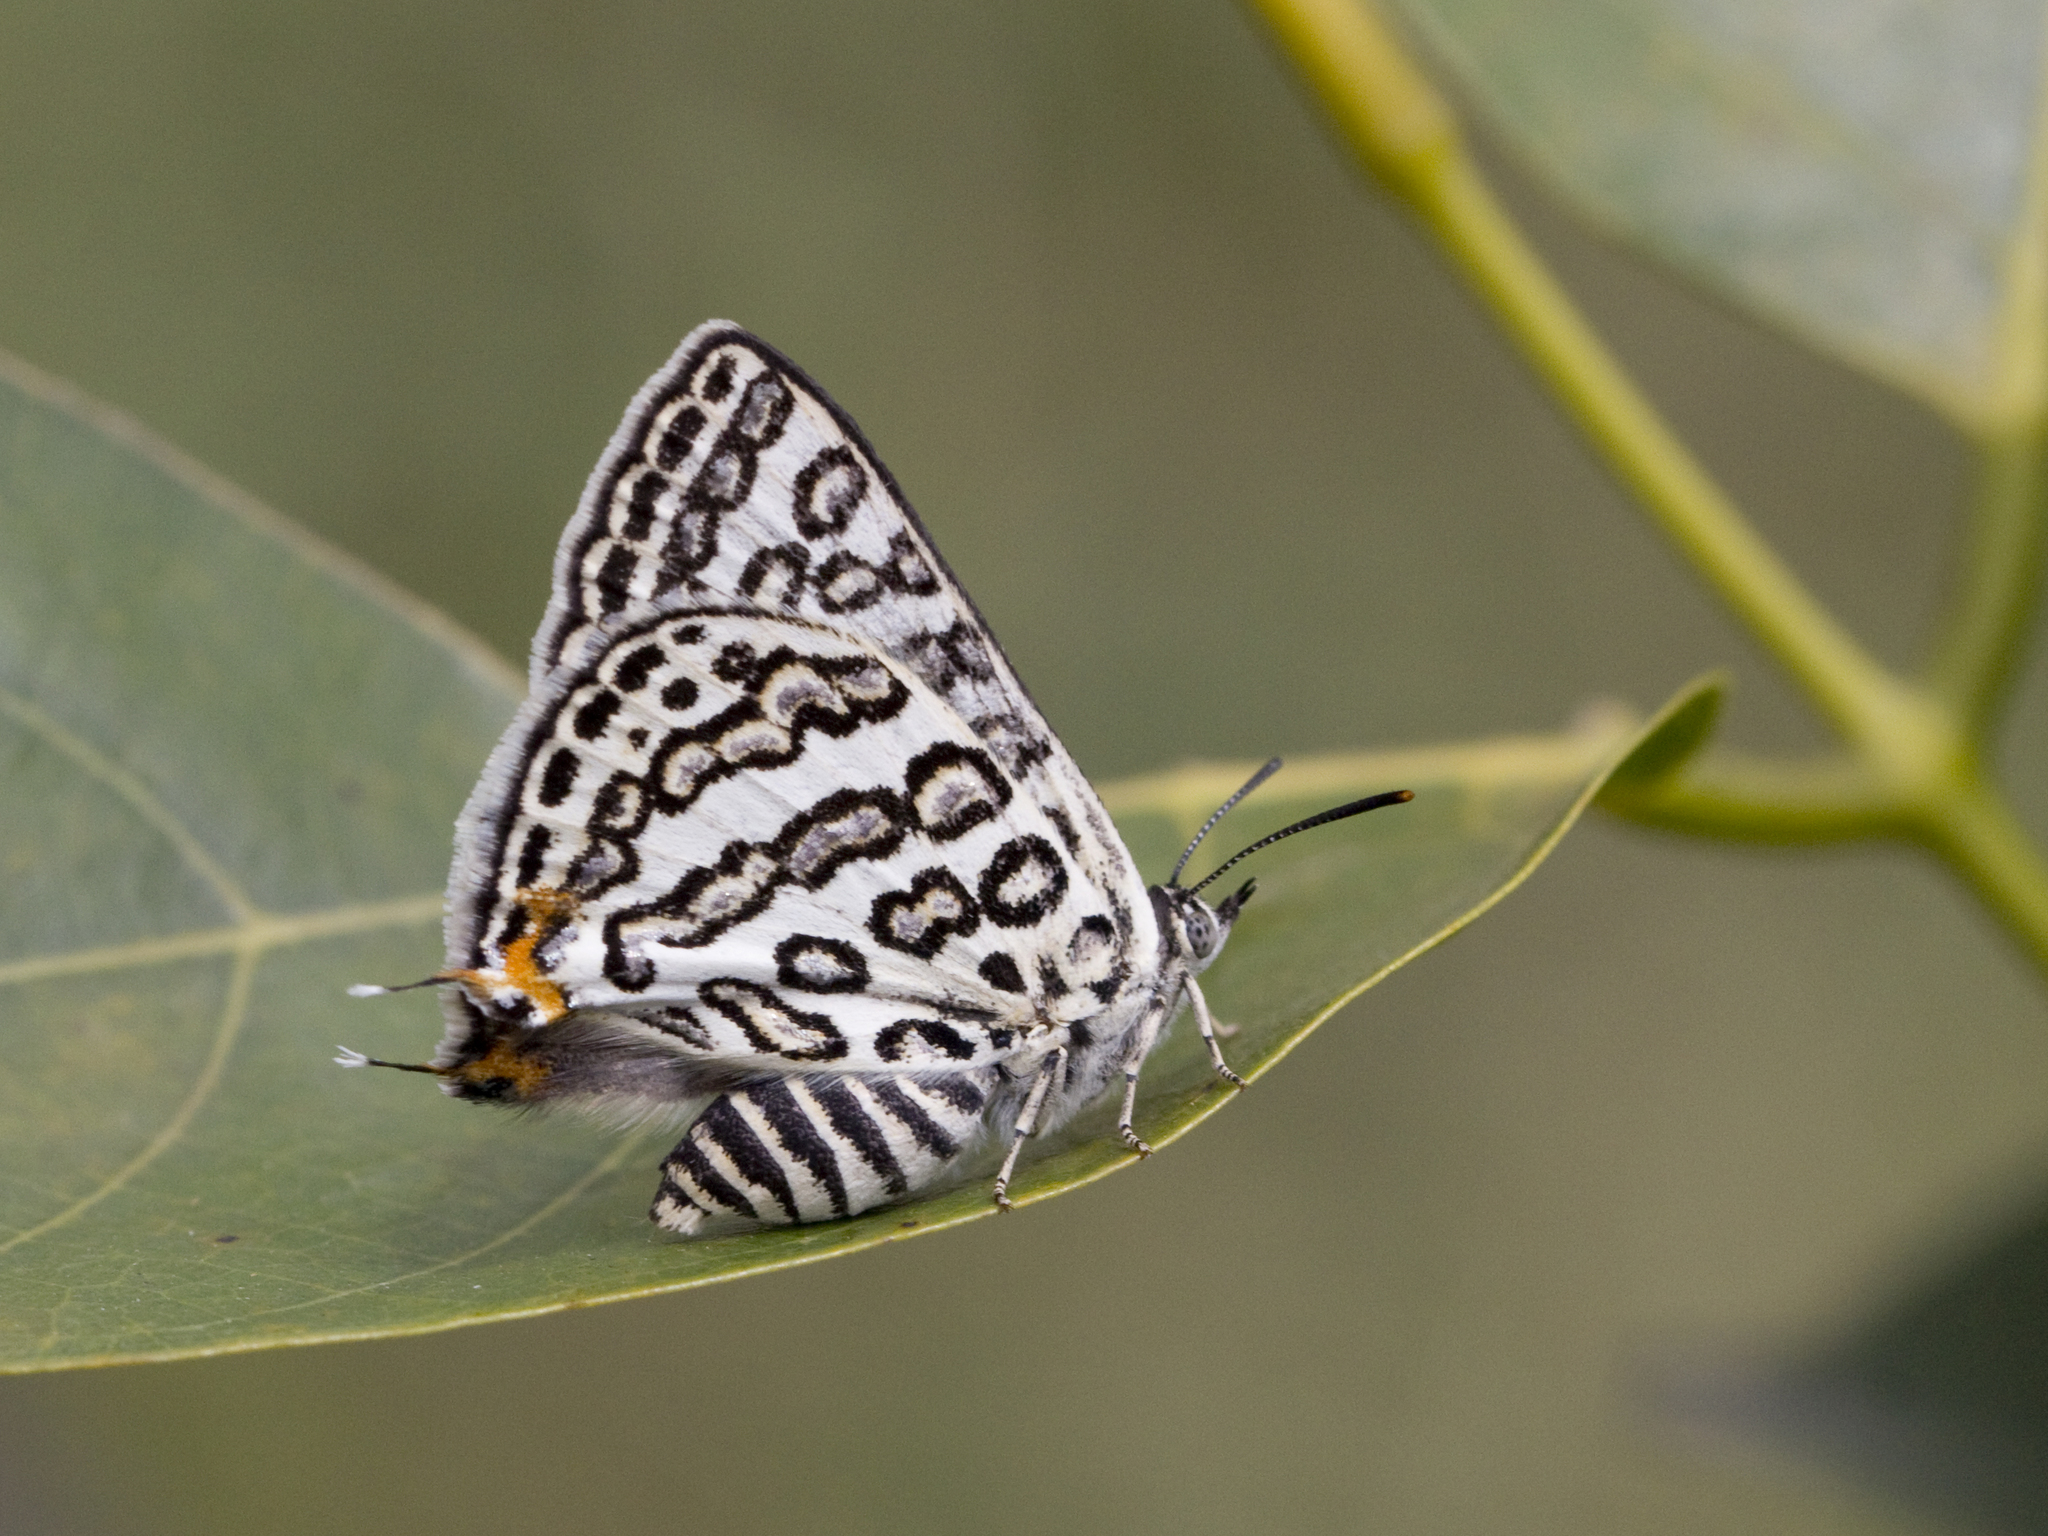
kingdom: Animalia
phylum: Arthropoda
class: Insecta
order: Lepidoptera
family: Lycaenidae
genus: Aphnaeus
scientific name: Aphnaeus lilacinus
